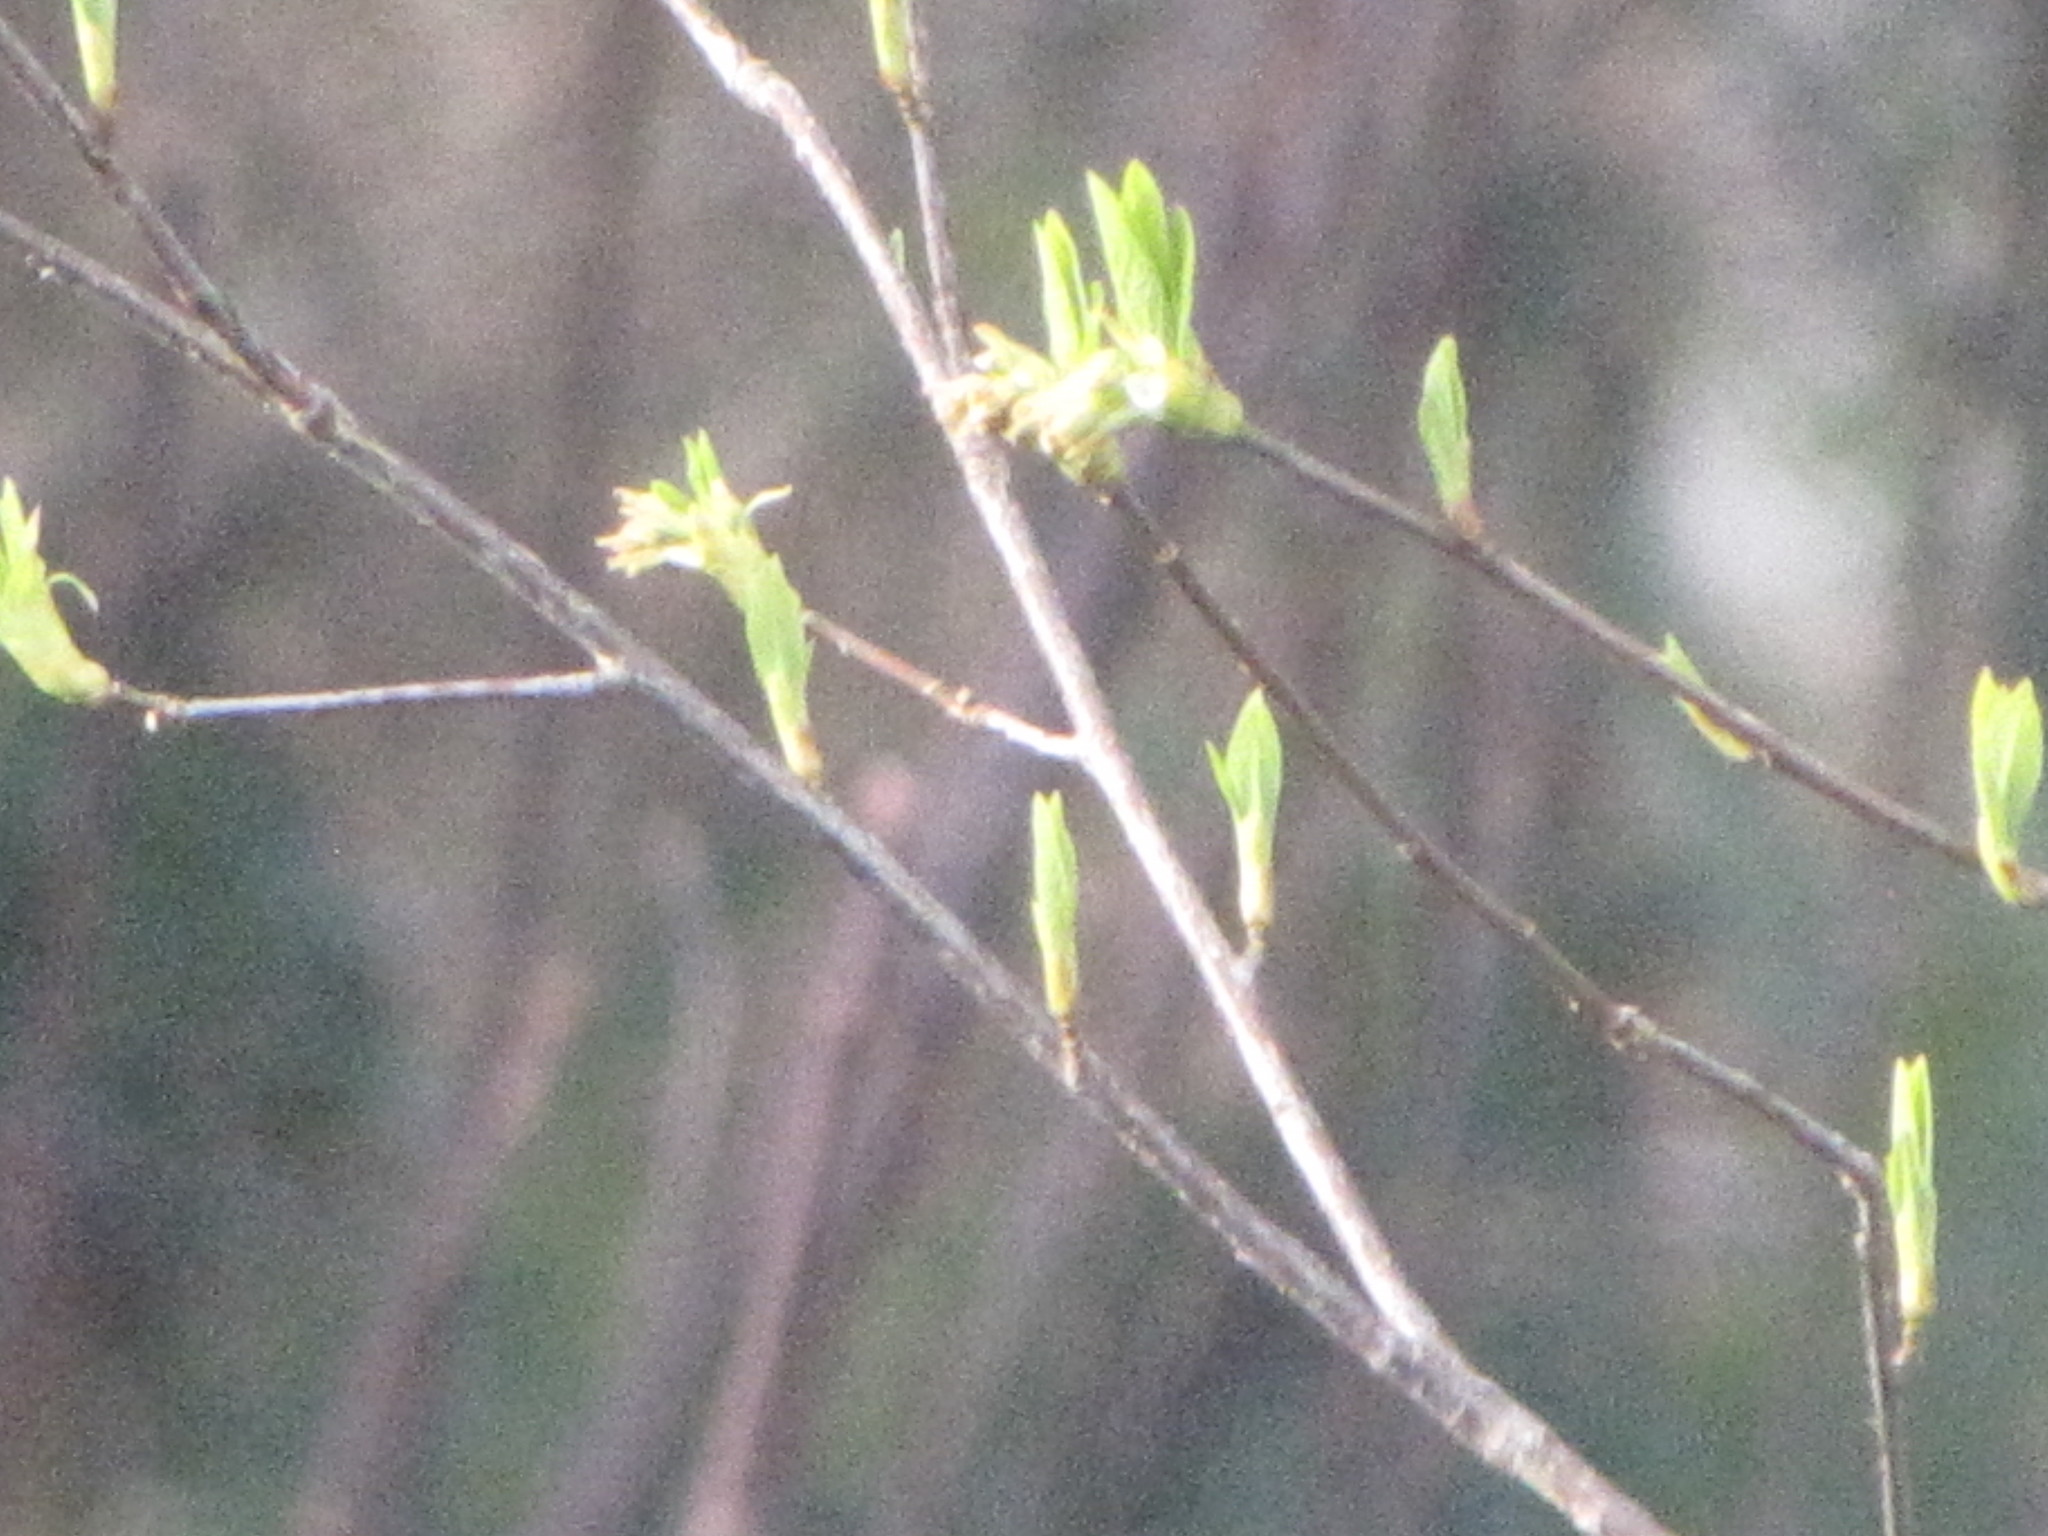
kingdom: Plantae
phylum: Tracheophyta
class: Magnoliopsida
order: Rosales
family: Rosaceae
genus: Oemleria
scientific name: Oemleria cerasiformis
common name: Osoberry
